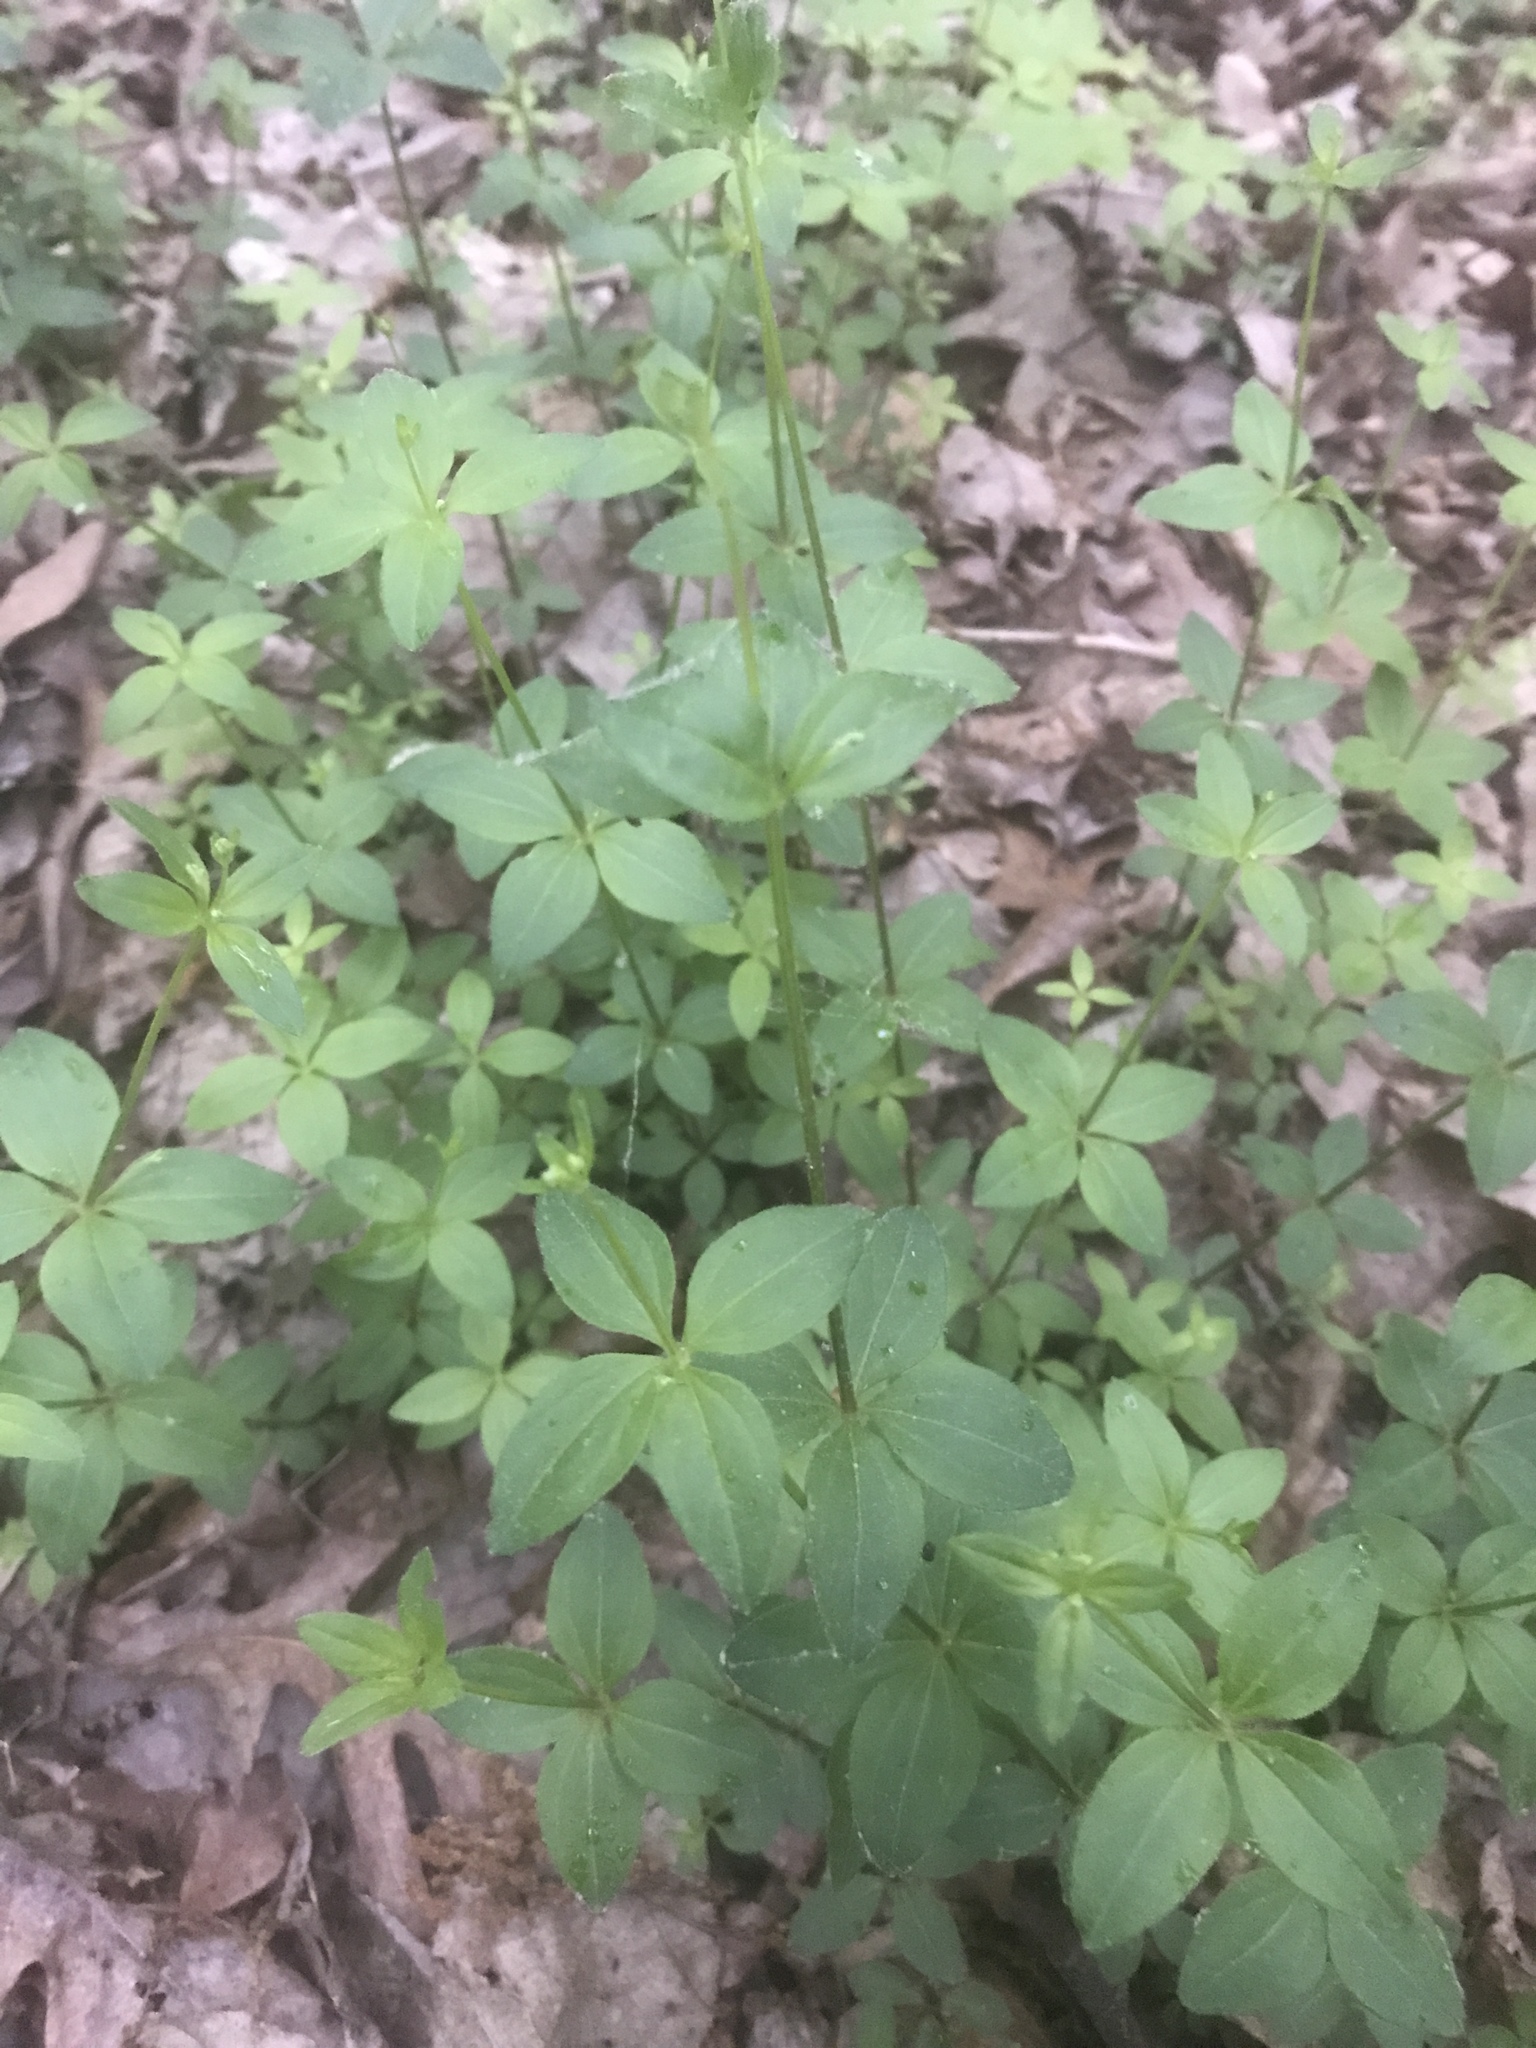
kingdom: Plantae
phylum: Tracheophyta
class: Magnoliopsida
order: Gentianales
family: Rubiaceae
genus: Galium
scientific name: Galium circaezans
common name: Forest bedstraw
